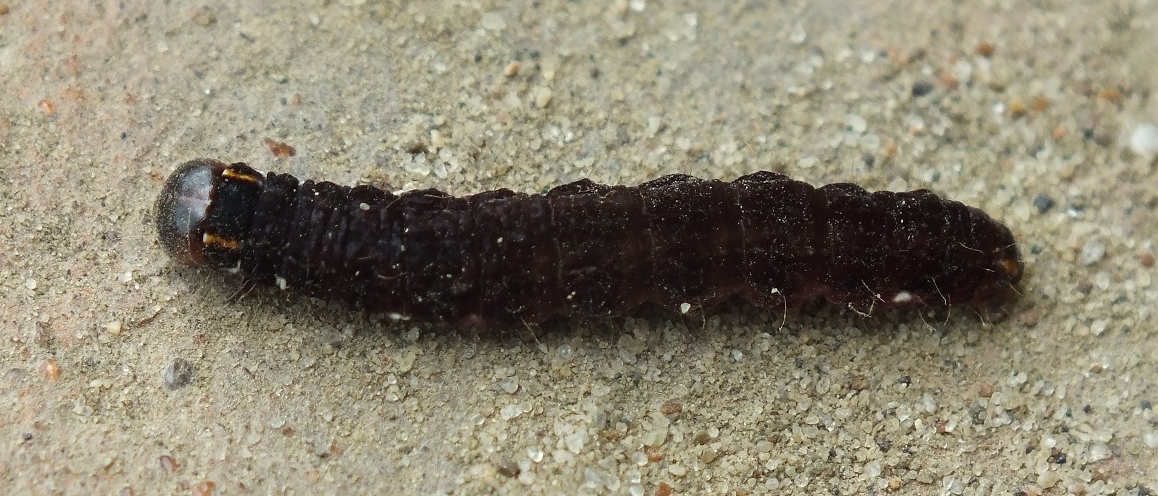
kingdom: Animalia
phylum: Arthropoda
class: Insecta
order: Lepidoptera
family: Noctuidae
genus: Eupsilia
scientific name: Eupsilia transversa
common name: Satellite
